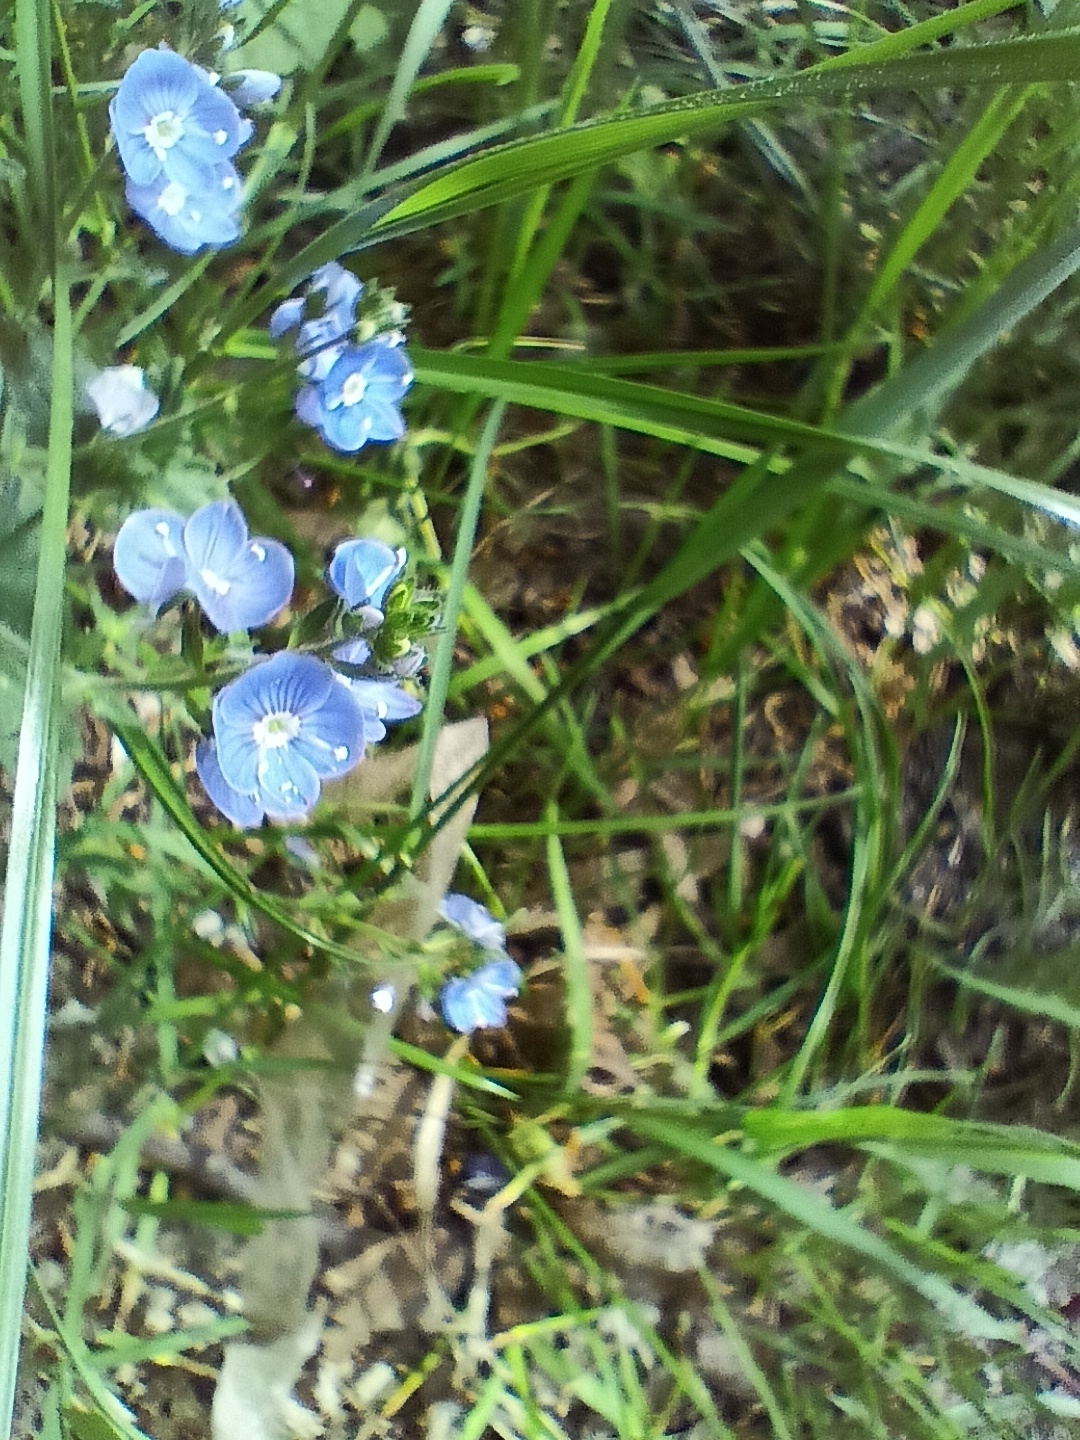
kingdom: Plantae
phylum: Tracheophyta
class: Magnoliopsida
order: Lamiales
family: Plantaginaceae
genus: Veronica
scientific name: Veronica chamaedrys
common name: Germander speedwell
